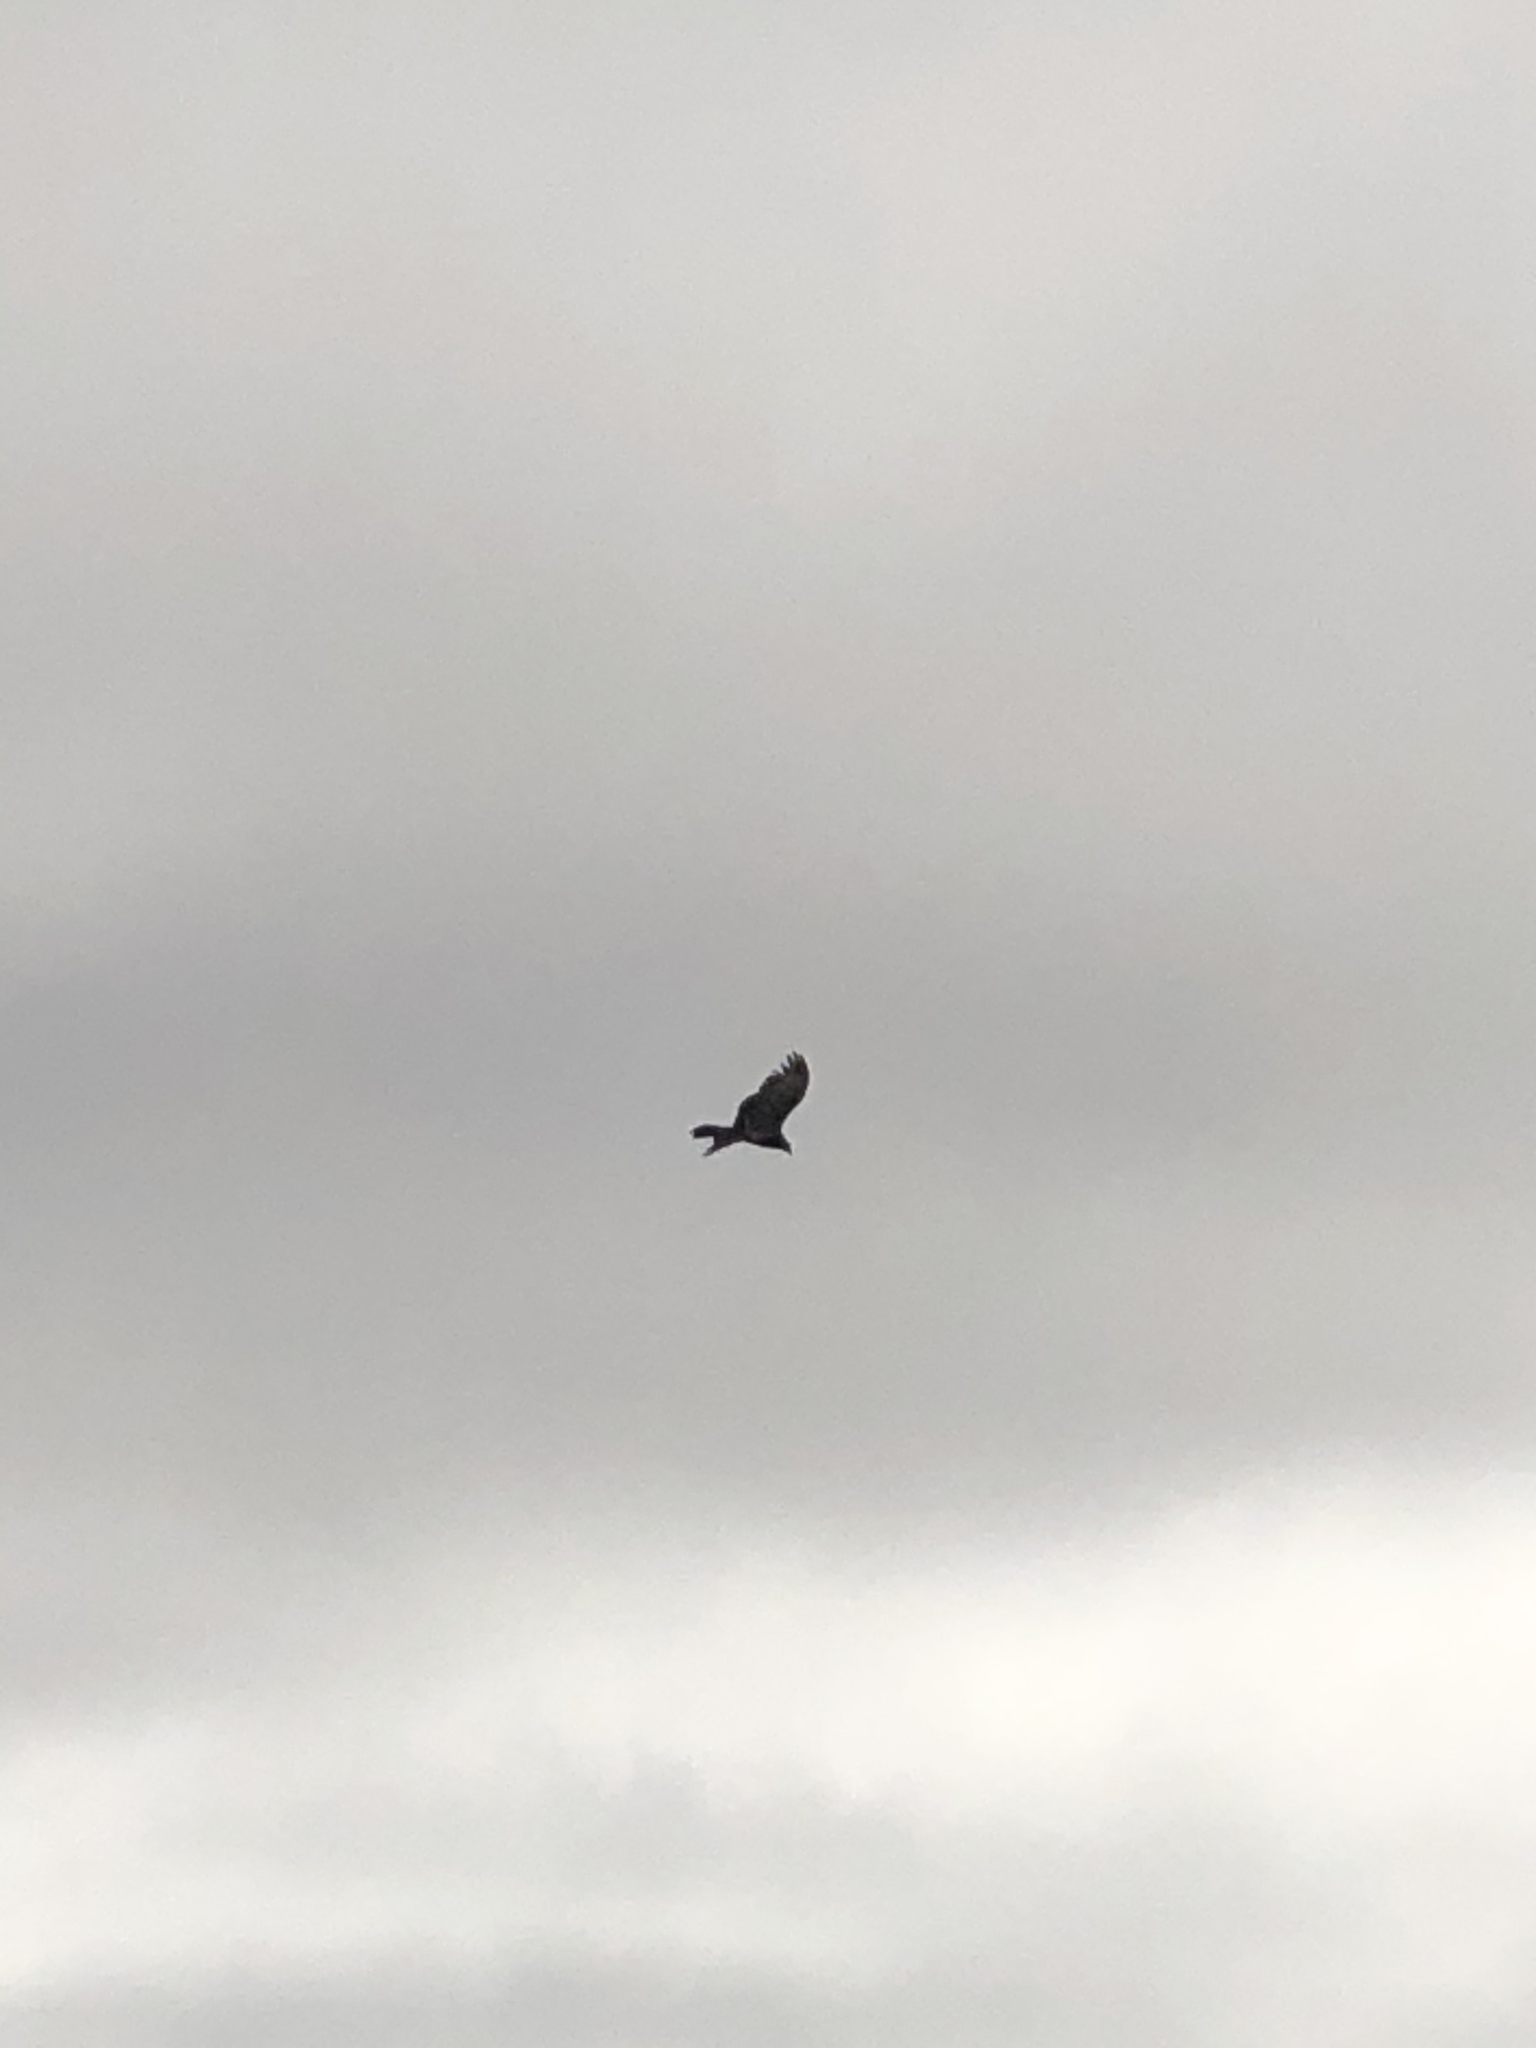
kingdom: Animalia
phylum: Chordata
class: Aves
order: Accipitriformes
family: Cathartidae
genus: Cathartes
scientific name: Cathartes aura
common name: Turkey vulture
